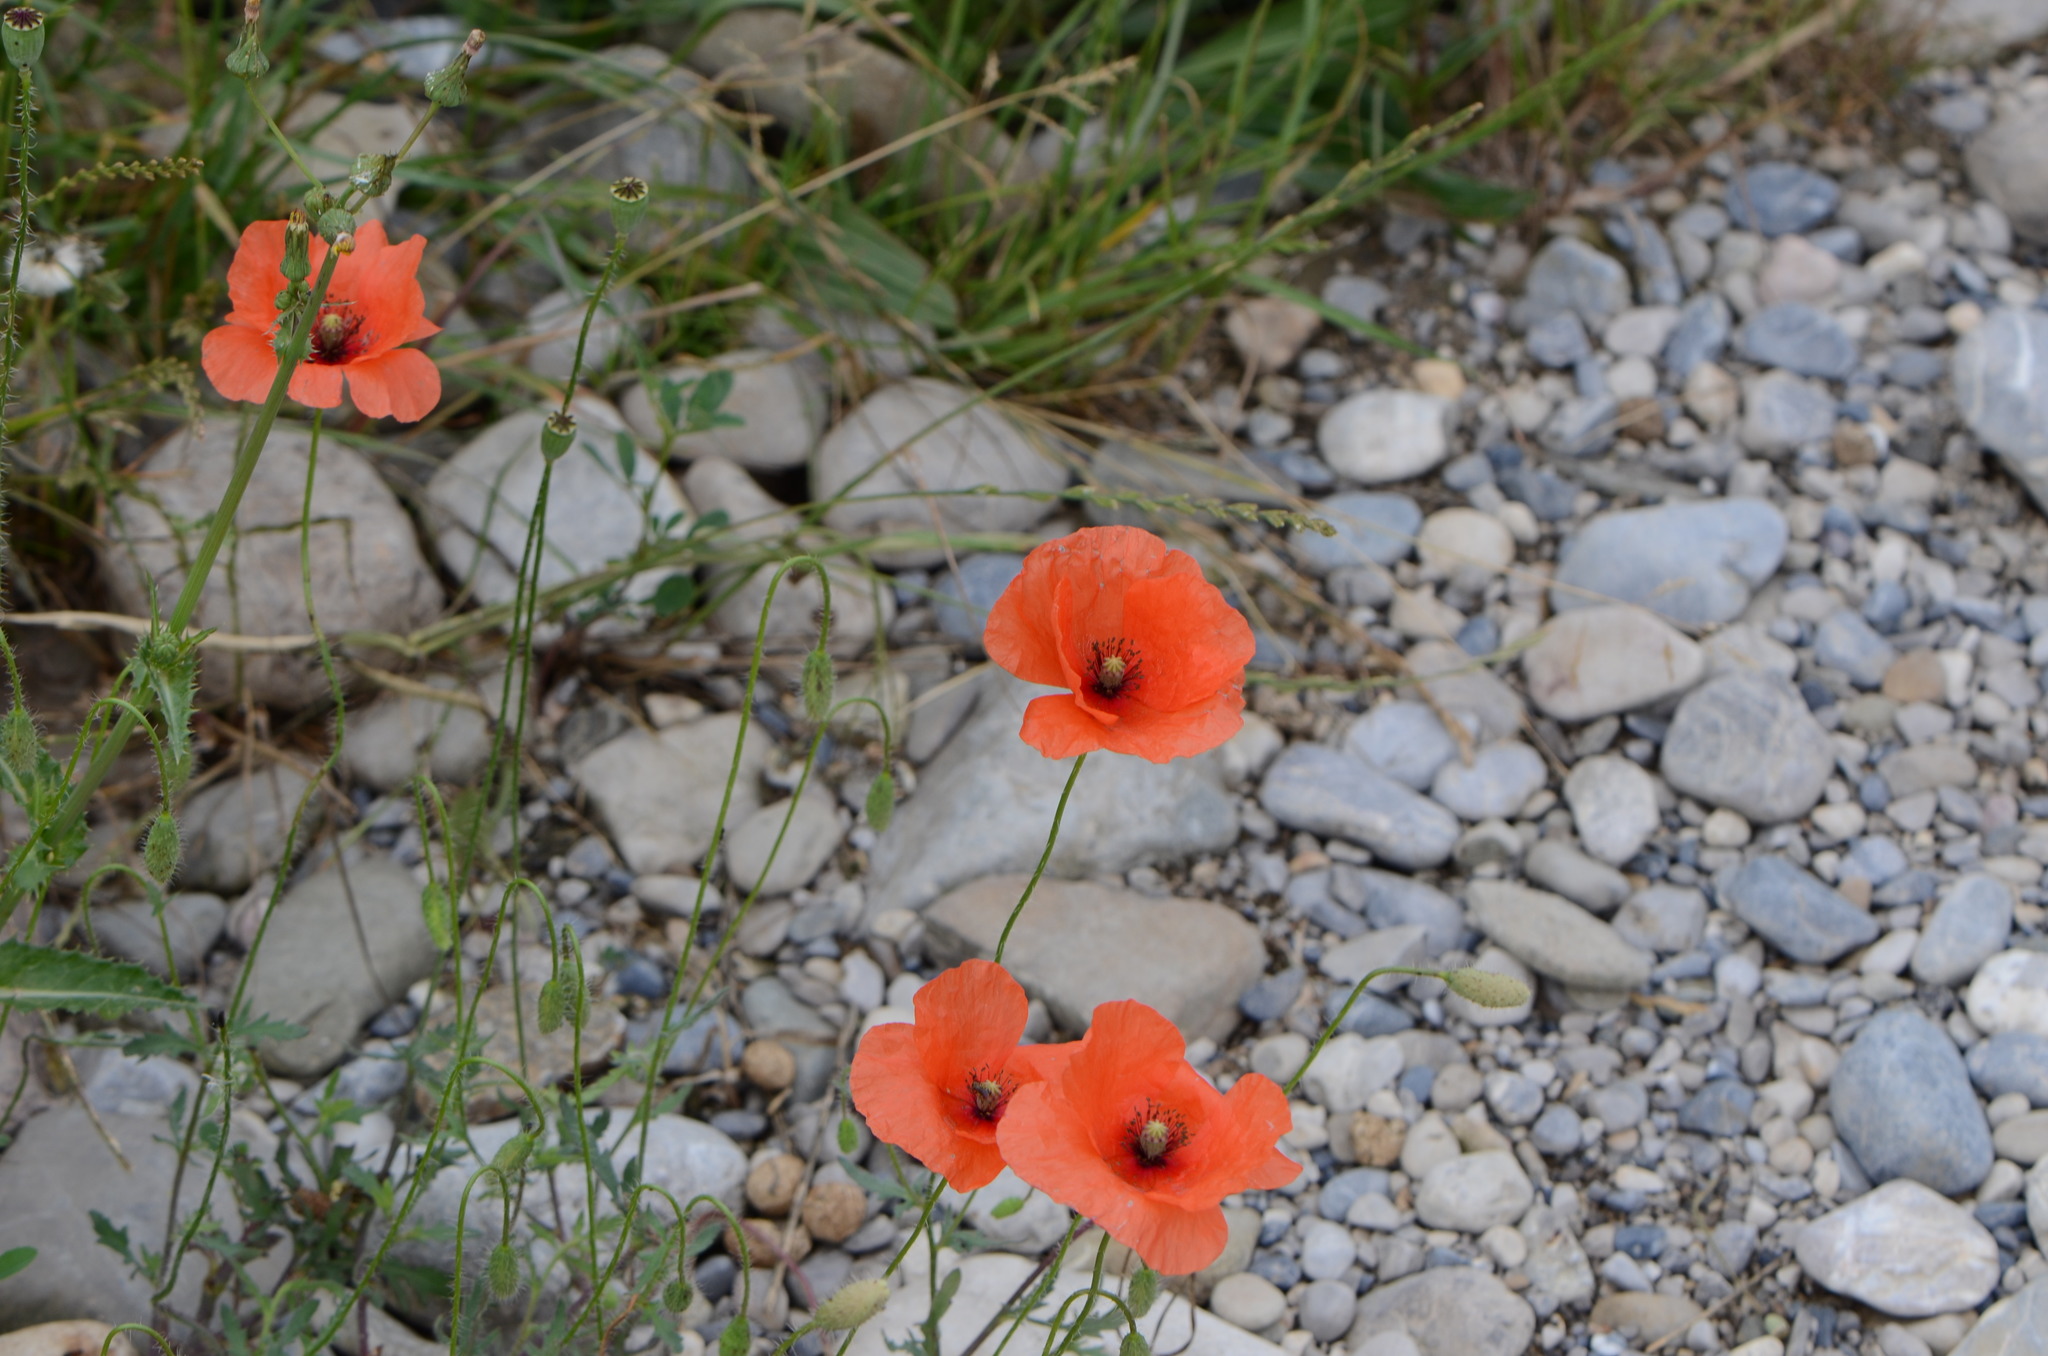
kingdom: Plantae
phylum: Tracheophyta
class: Magnoliopsida
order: Ranunculales
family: Papaveraceae
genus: Papaver
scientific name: Papaver rhoeas
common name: Corn poppy
